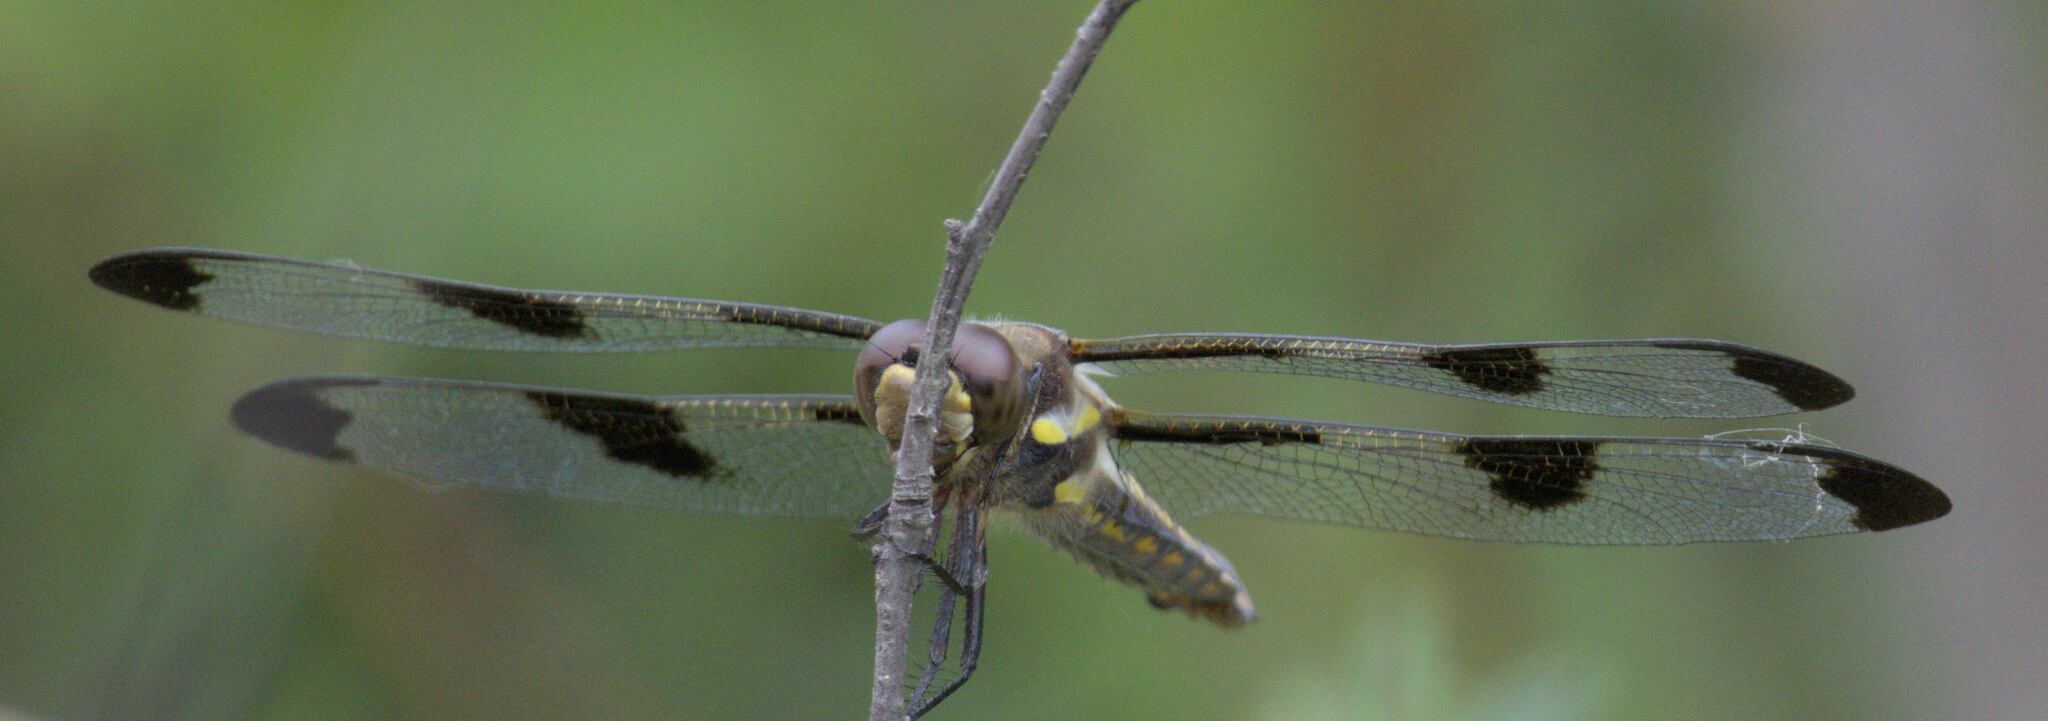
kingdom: Animalia
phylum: Arthropoda
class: Insecta
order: Odonata
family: Libellulidae
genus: Libellula
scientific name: Libellula pulchella
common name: Twelve-spotted skimmer
